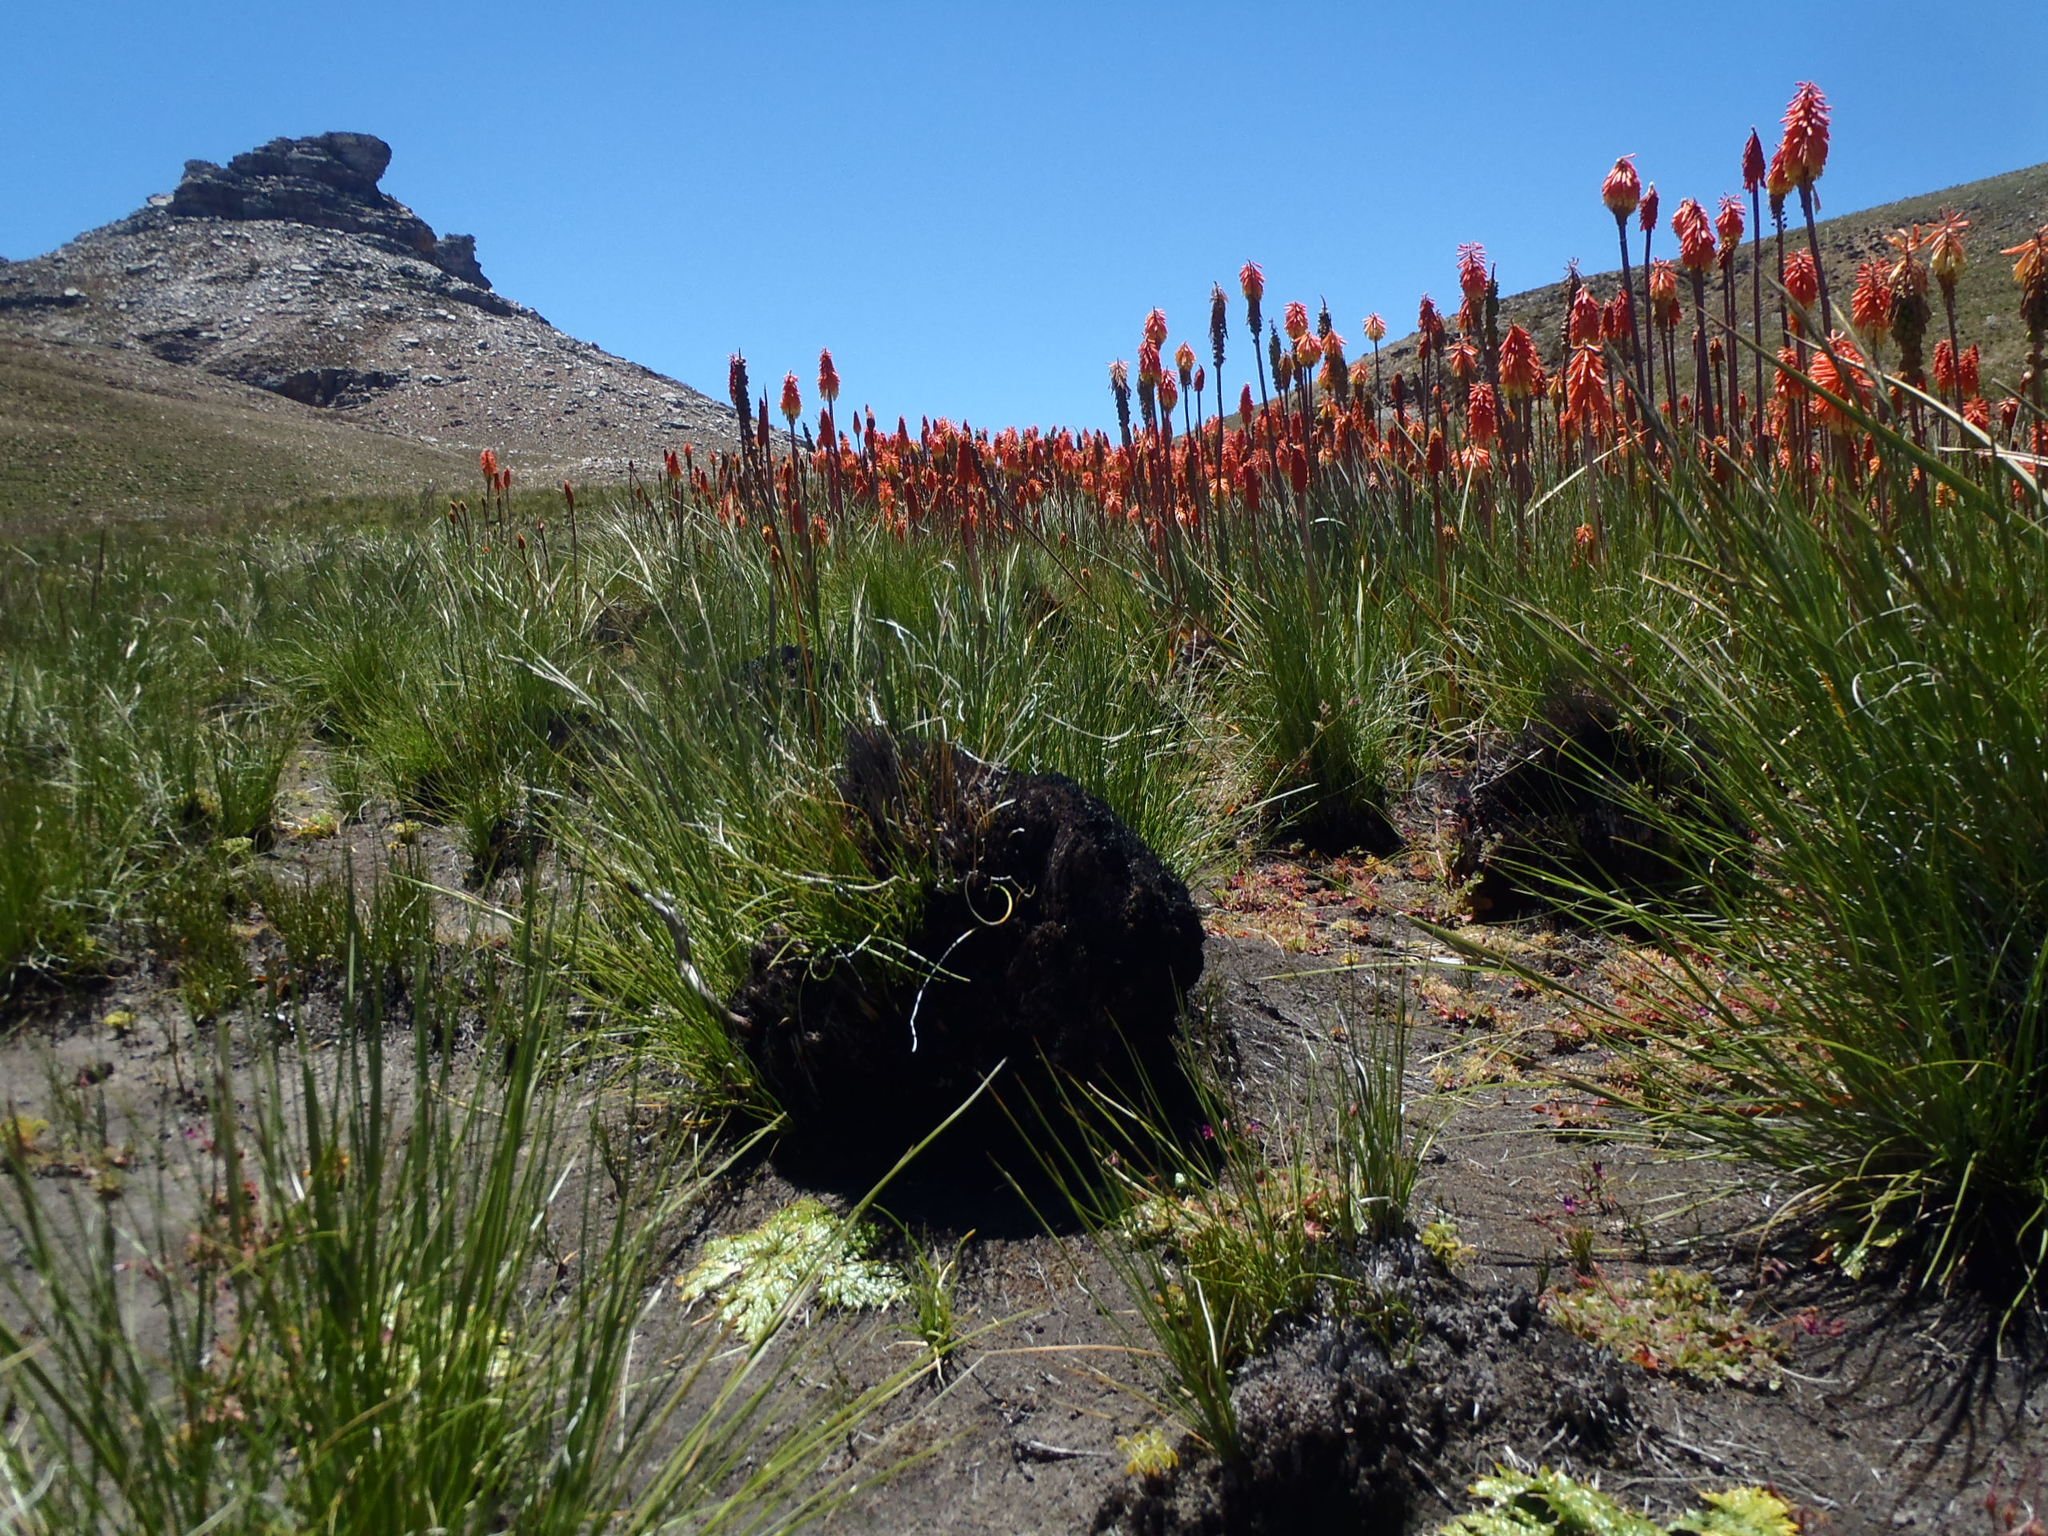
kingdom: Plantae
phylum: Tracheophyta
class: Liliopsida
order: Asparagales
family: Asphodelaceae
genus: Kniphofia
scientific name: Kniphofia uvaria
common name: Red-hot-poker
